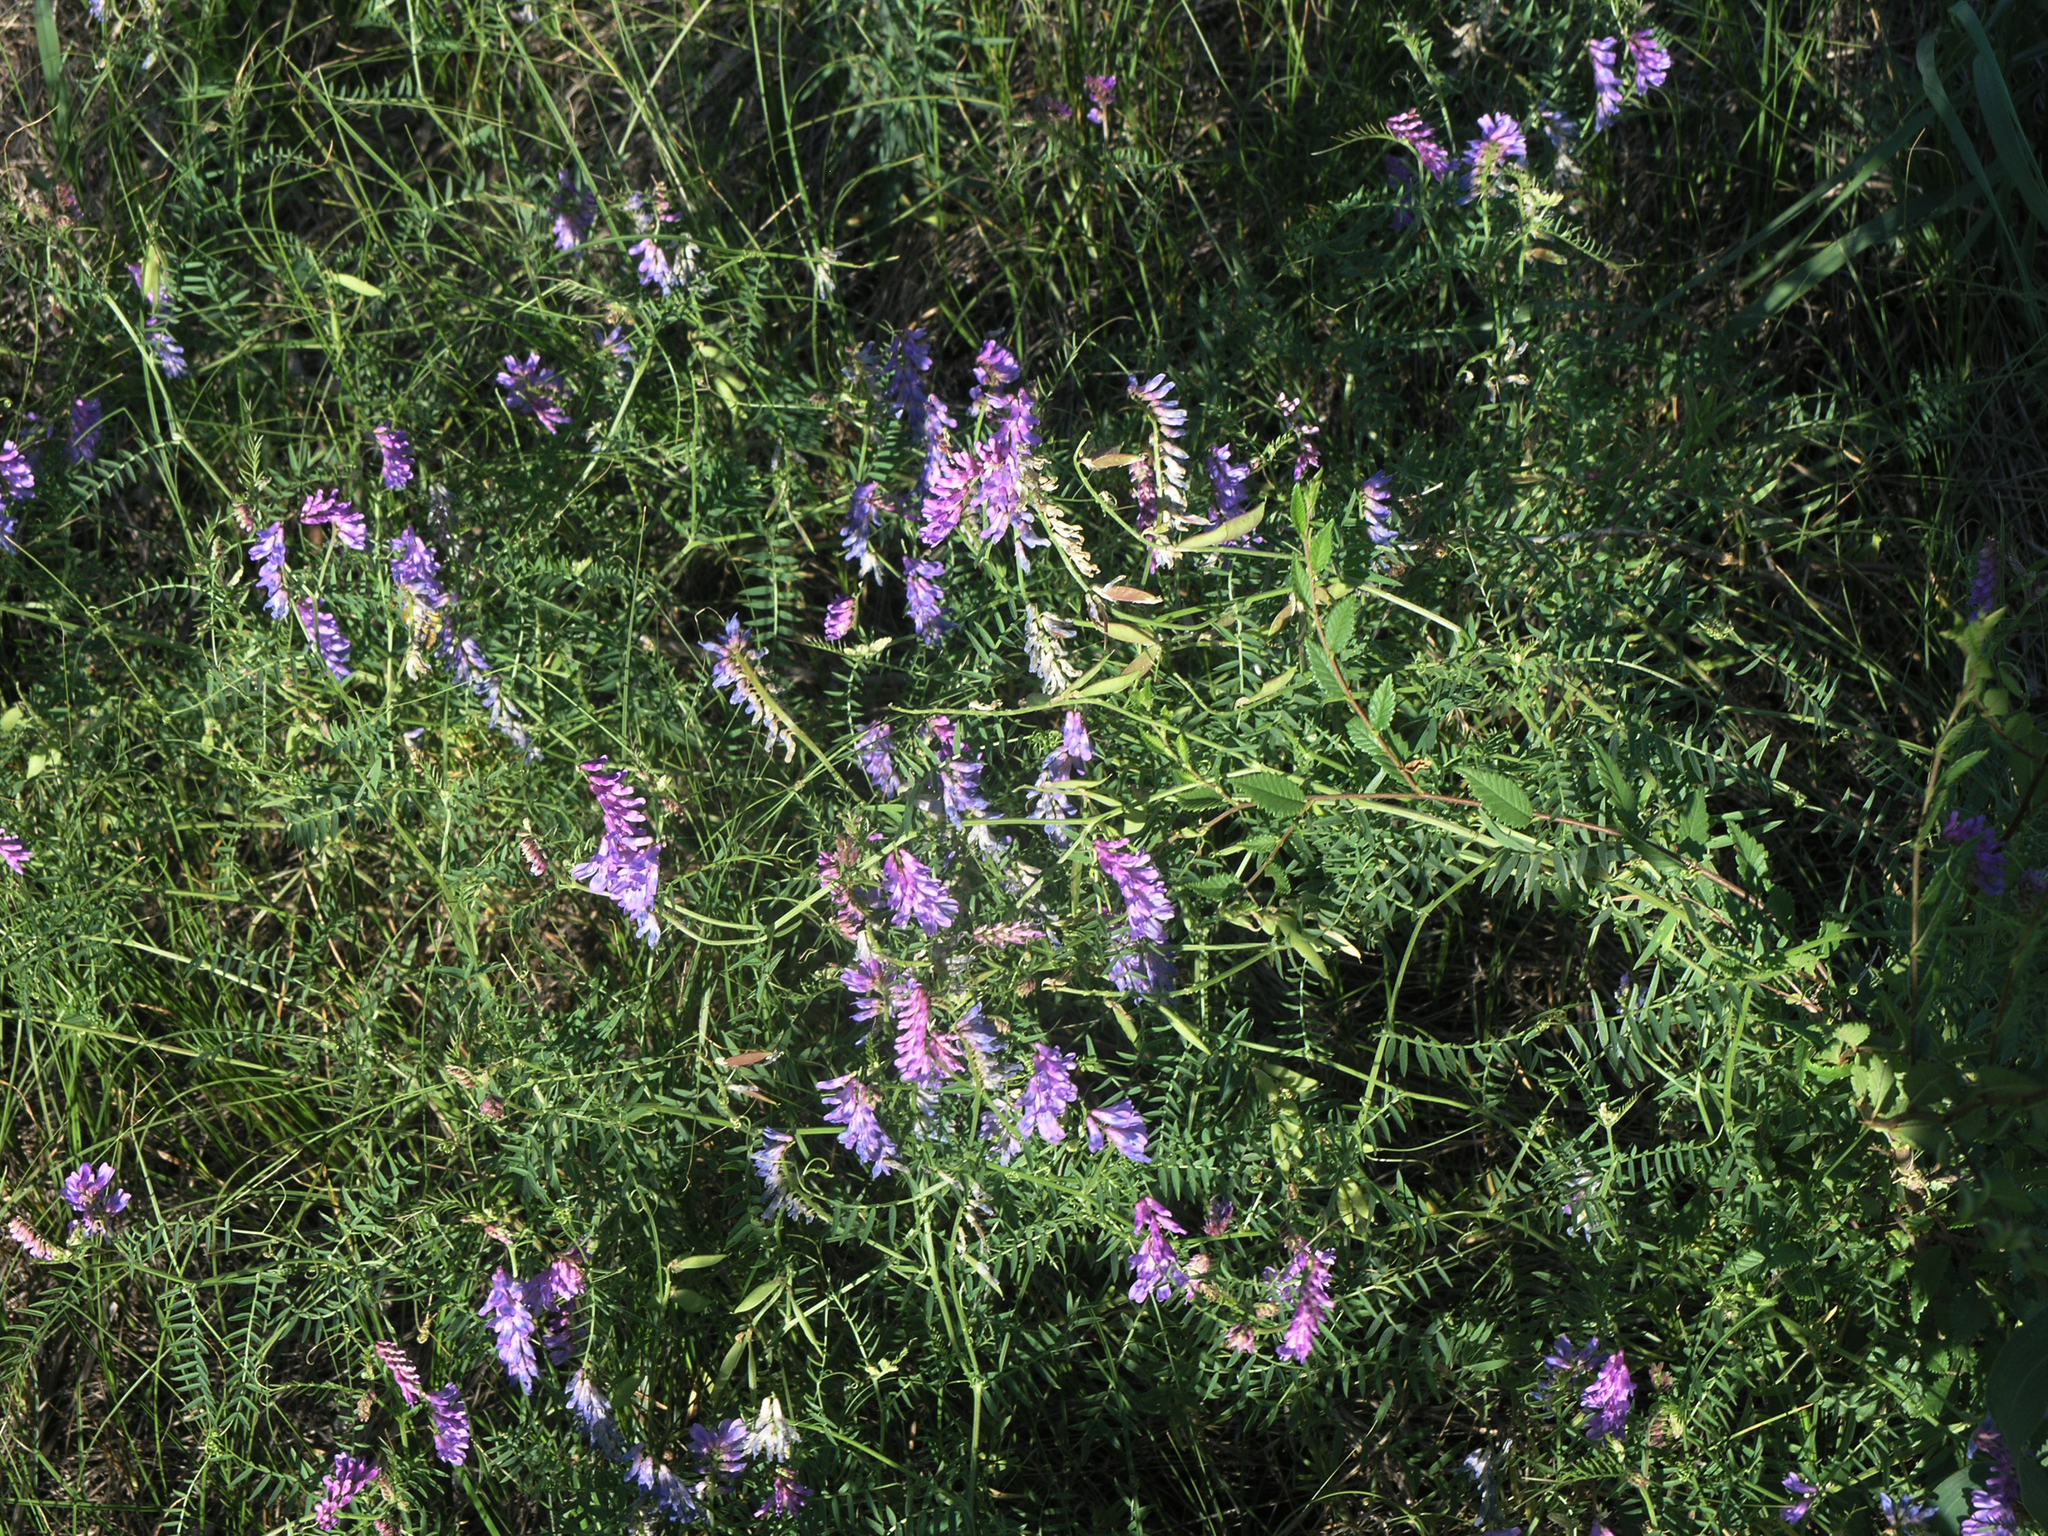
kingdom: Plantae
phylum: Tracheophyta
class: Magnoliopsida
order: Fabales
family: Fabaceae
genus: Vicia
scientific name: Vicia cracca
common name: Bird vetch
